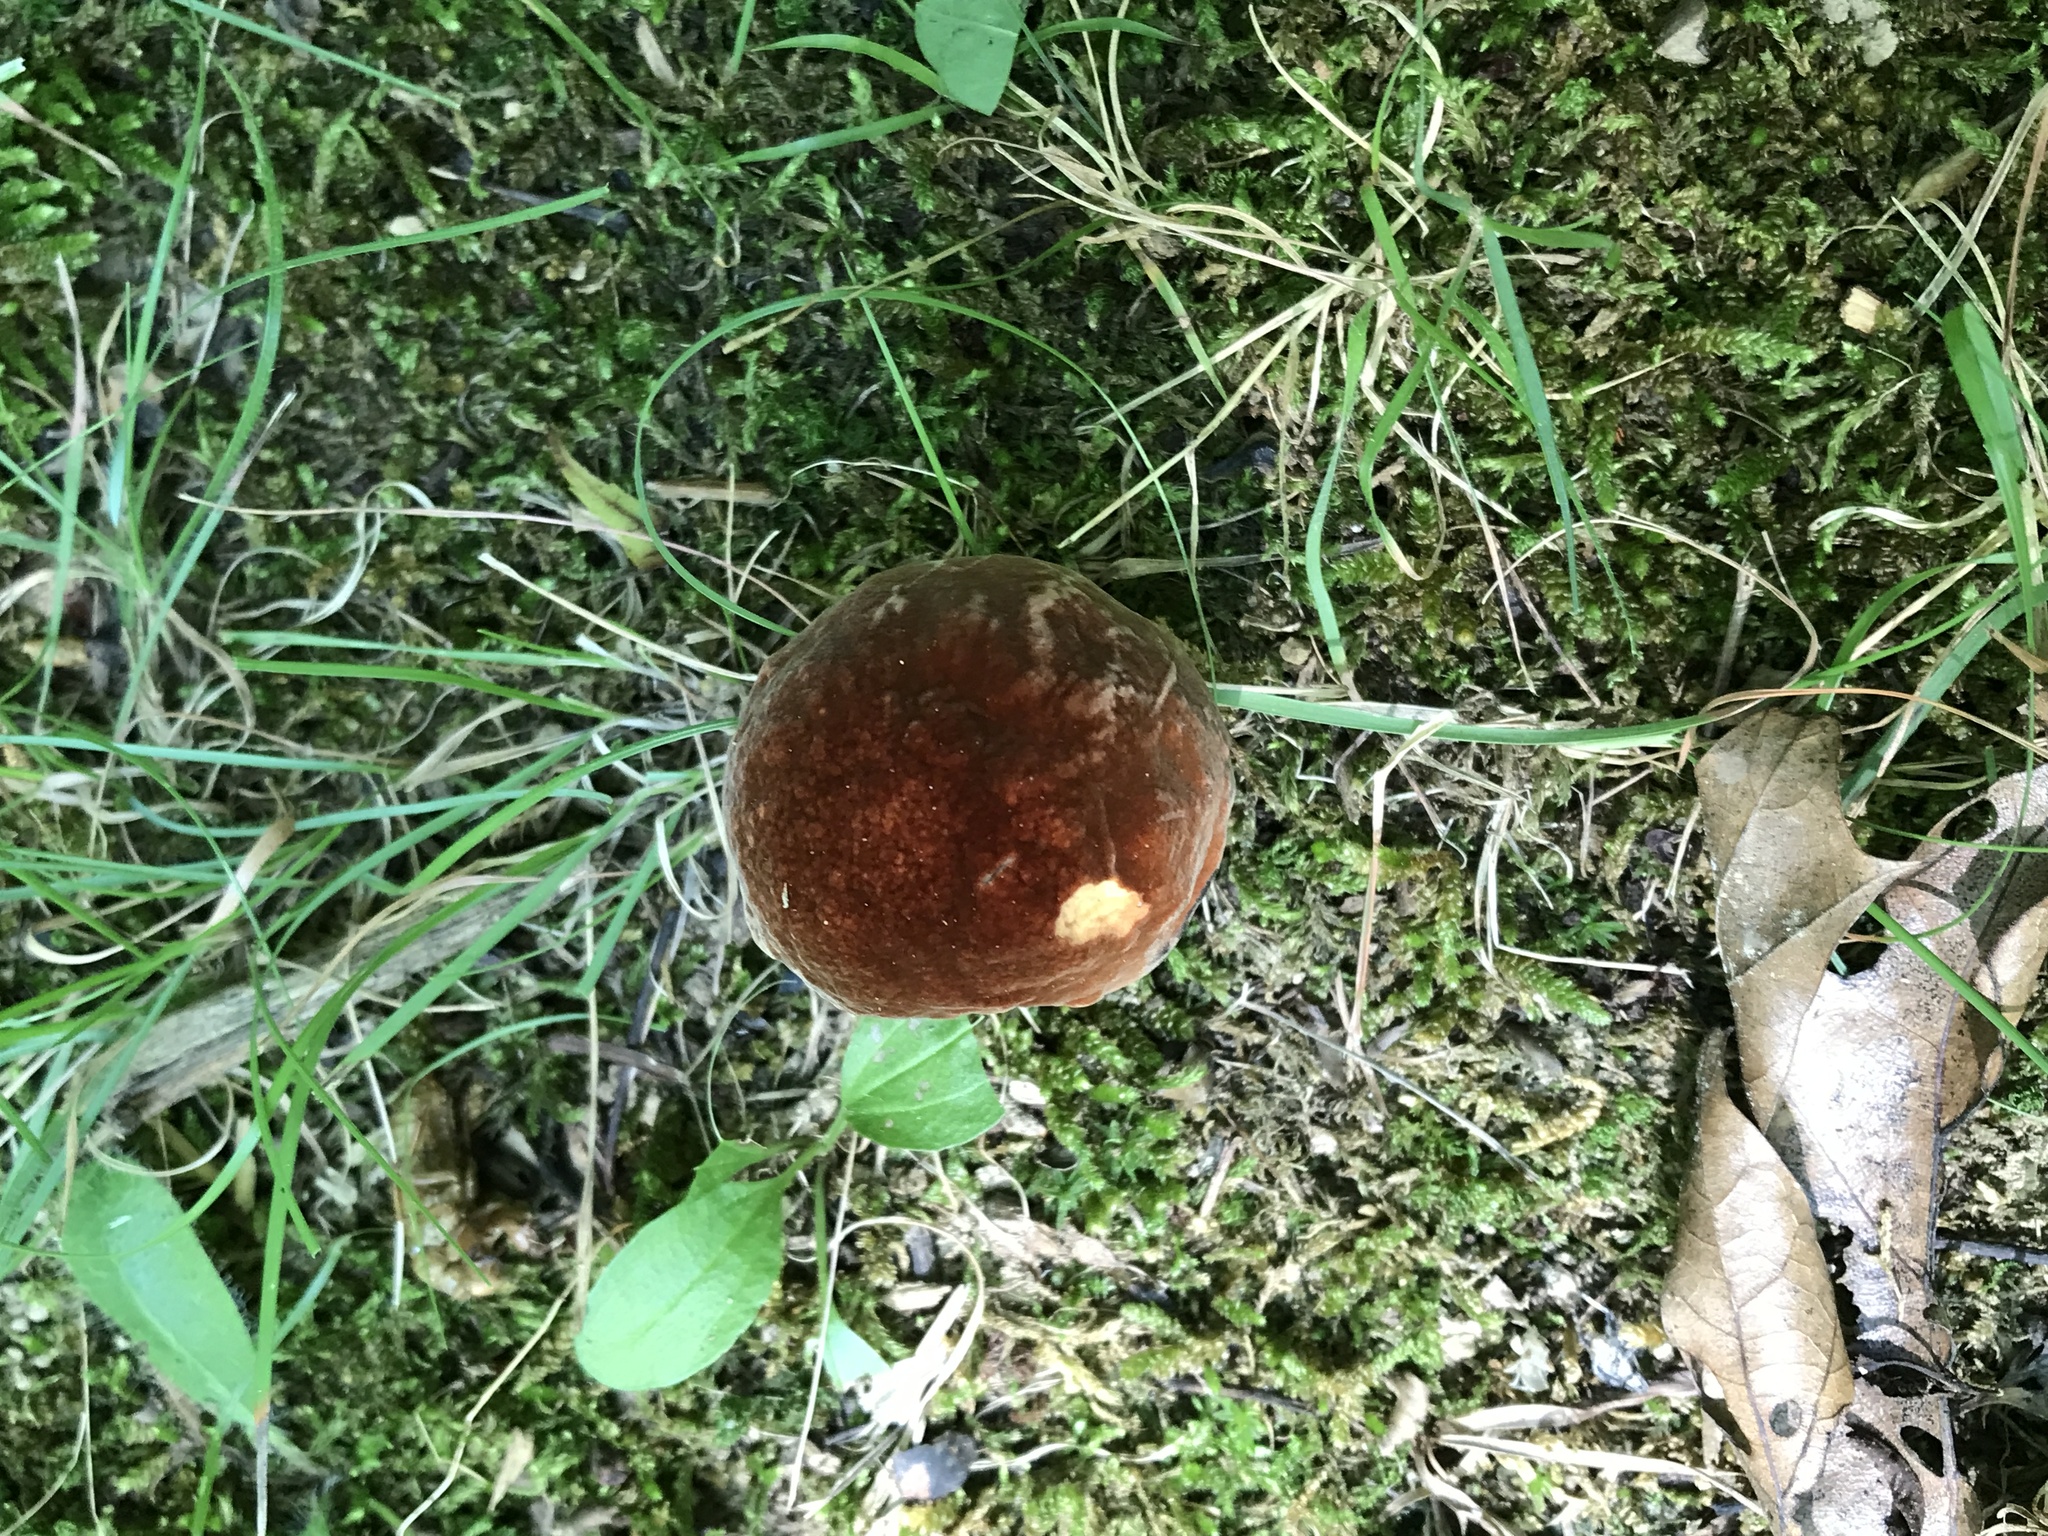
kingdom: Fungi
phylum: Basidiomycota
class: Agaricomycetes
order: Boletales
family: Boletaceae
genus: Boletus
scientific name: Boletus subvelutipes
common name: Red-mouth bolete
